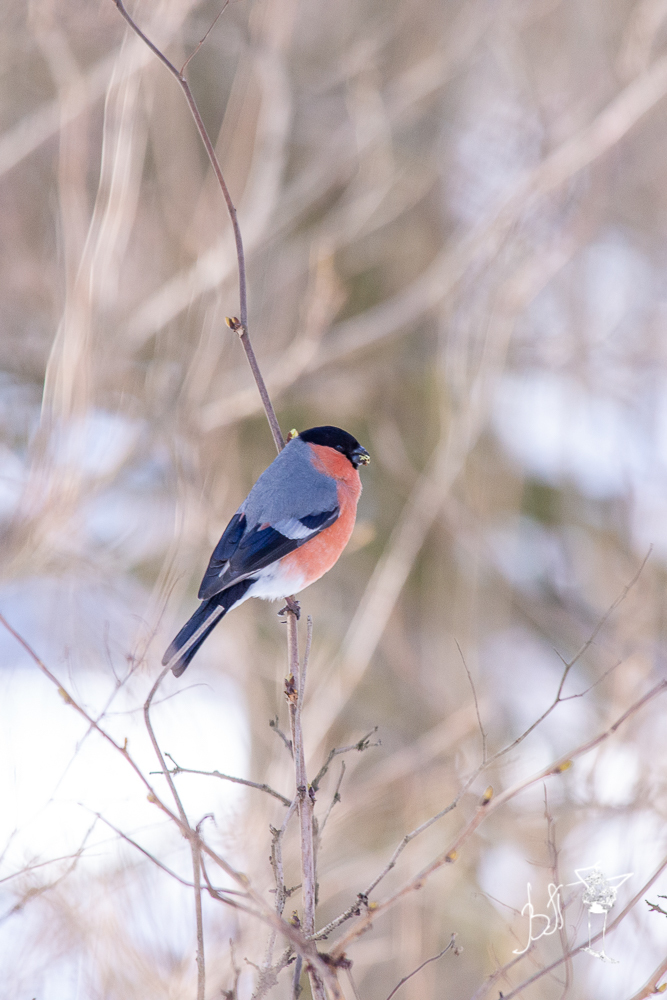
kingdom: Animalia
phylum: Chordata
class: Aves
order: Passeriformes
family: Fringillidae
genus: Pyrrhula
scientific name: Pyrrhula pyrrhula
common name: Eurasian bullfinch
